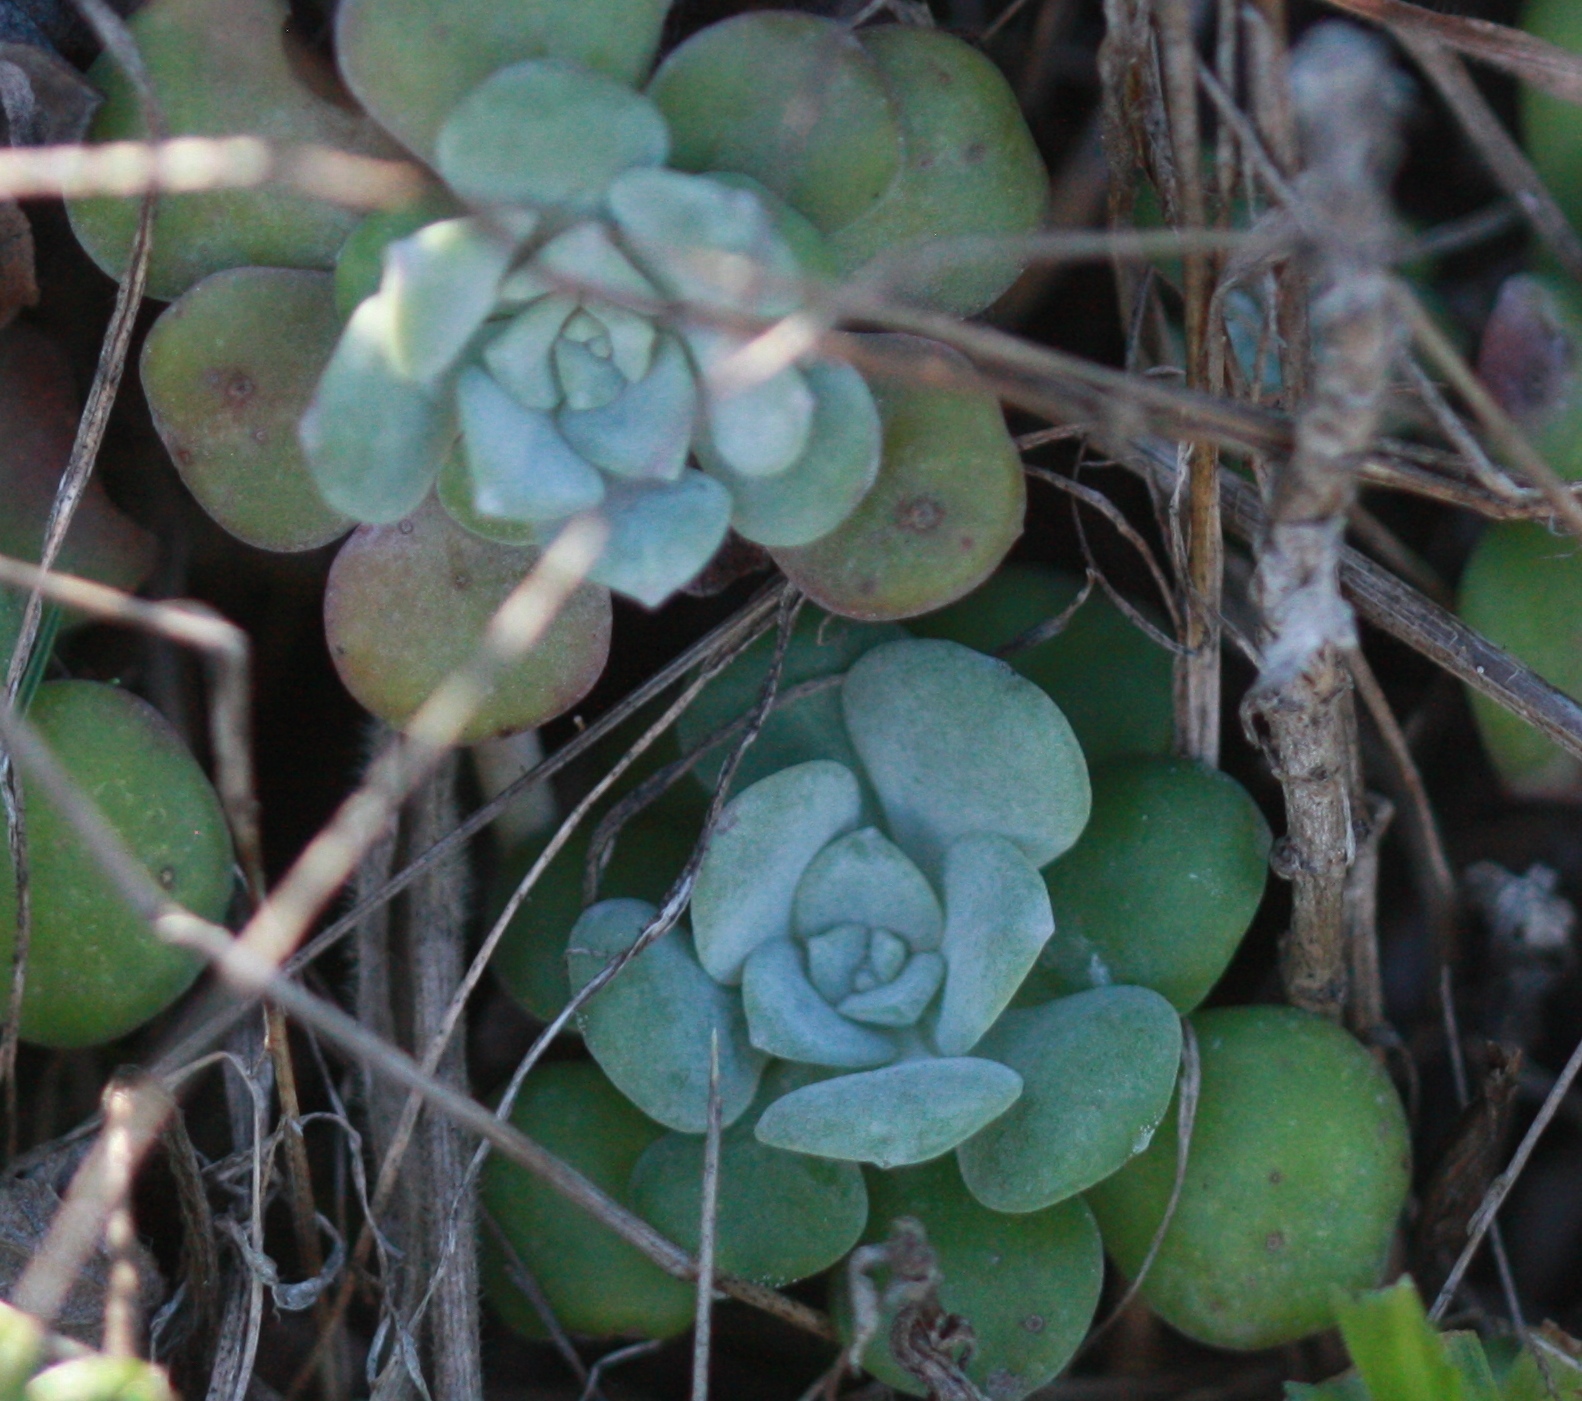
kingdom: Plantae
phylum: Tracheophyta
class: Magnoliopsida
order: Saxifragales
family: Crassulaceae
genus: Sedum
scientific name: Sedum spathulifolium
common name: Colorado stonecrop
